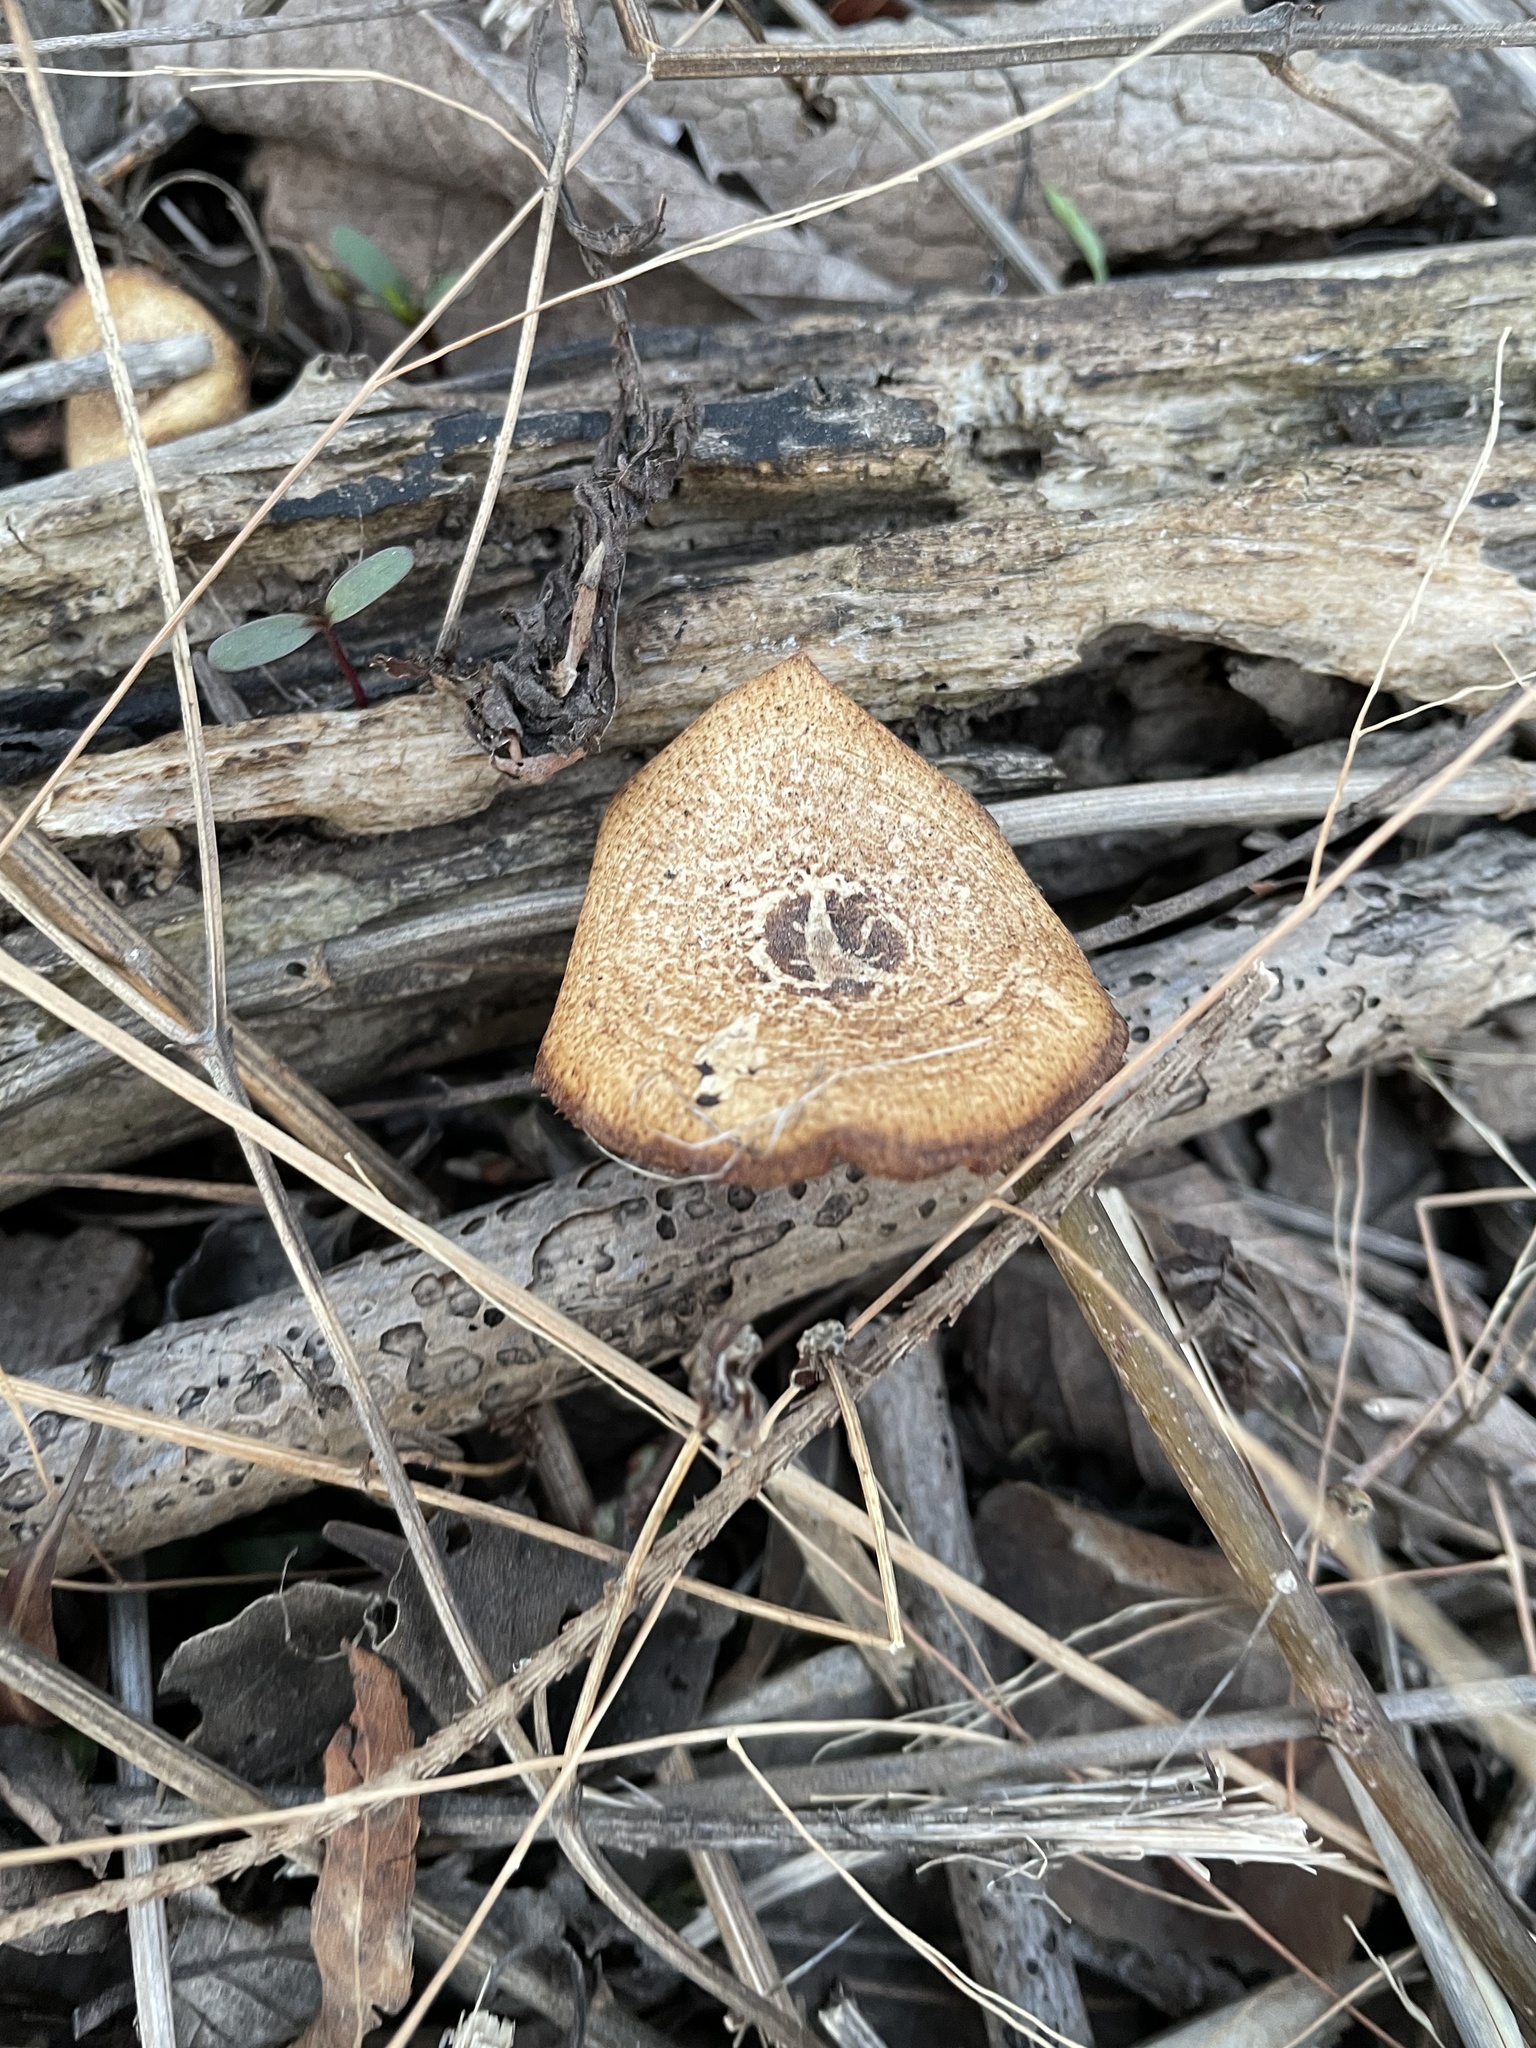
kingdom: Fungi
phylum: Basidiomycota
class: Agaricomycetes
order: Polyporales
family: Polyporaceae
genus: Lentinus
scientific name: Lentinus arcularius
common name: Spring polypore
